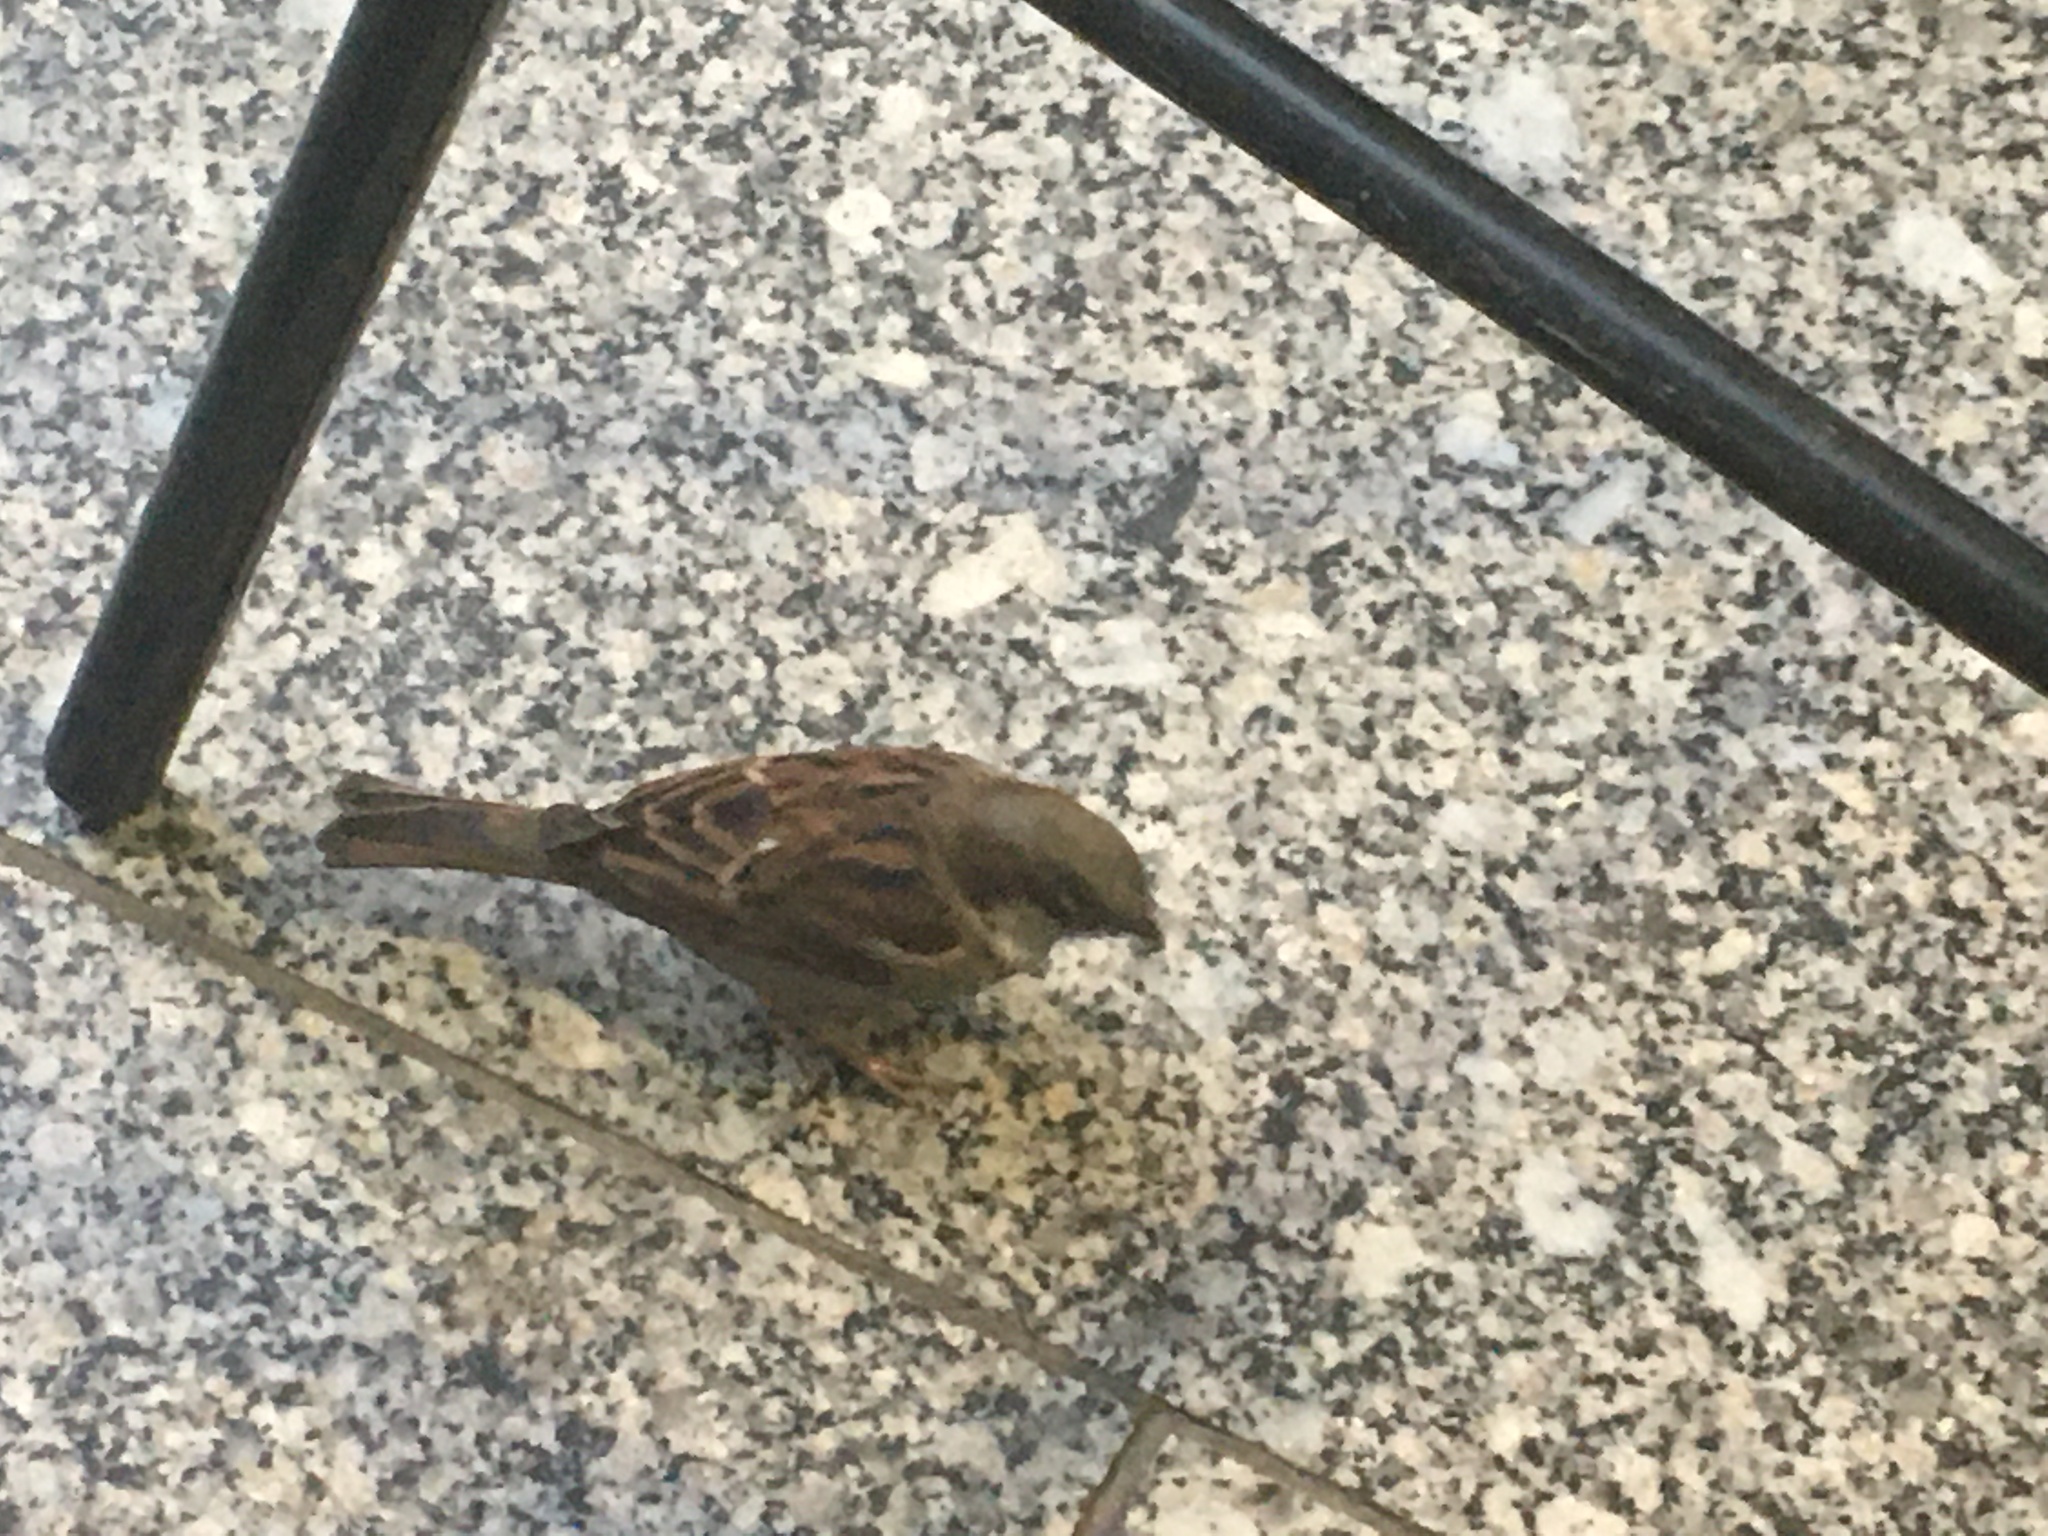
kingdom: Animalia
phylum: Chordata
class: Aves
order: Passeriformes
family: Passeridae
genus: Passer
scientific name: Passer domesticus
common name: House sparrow
